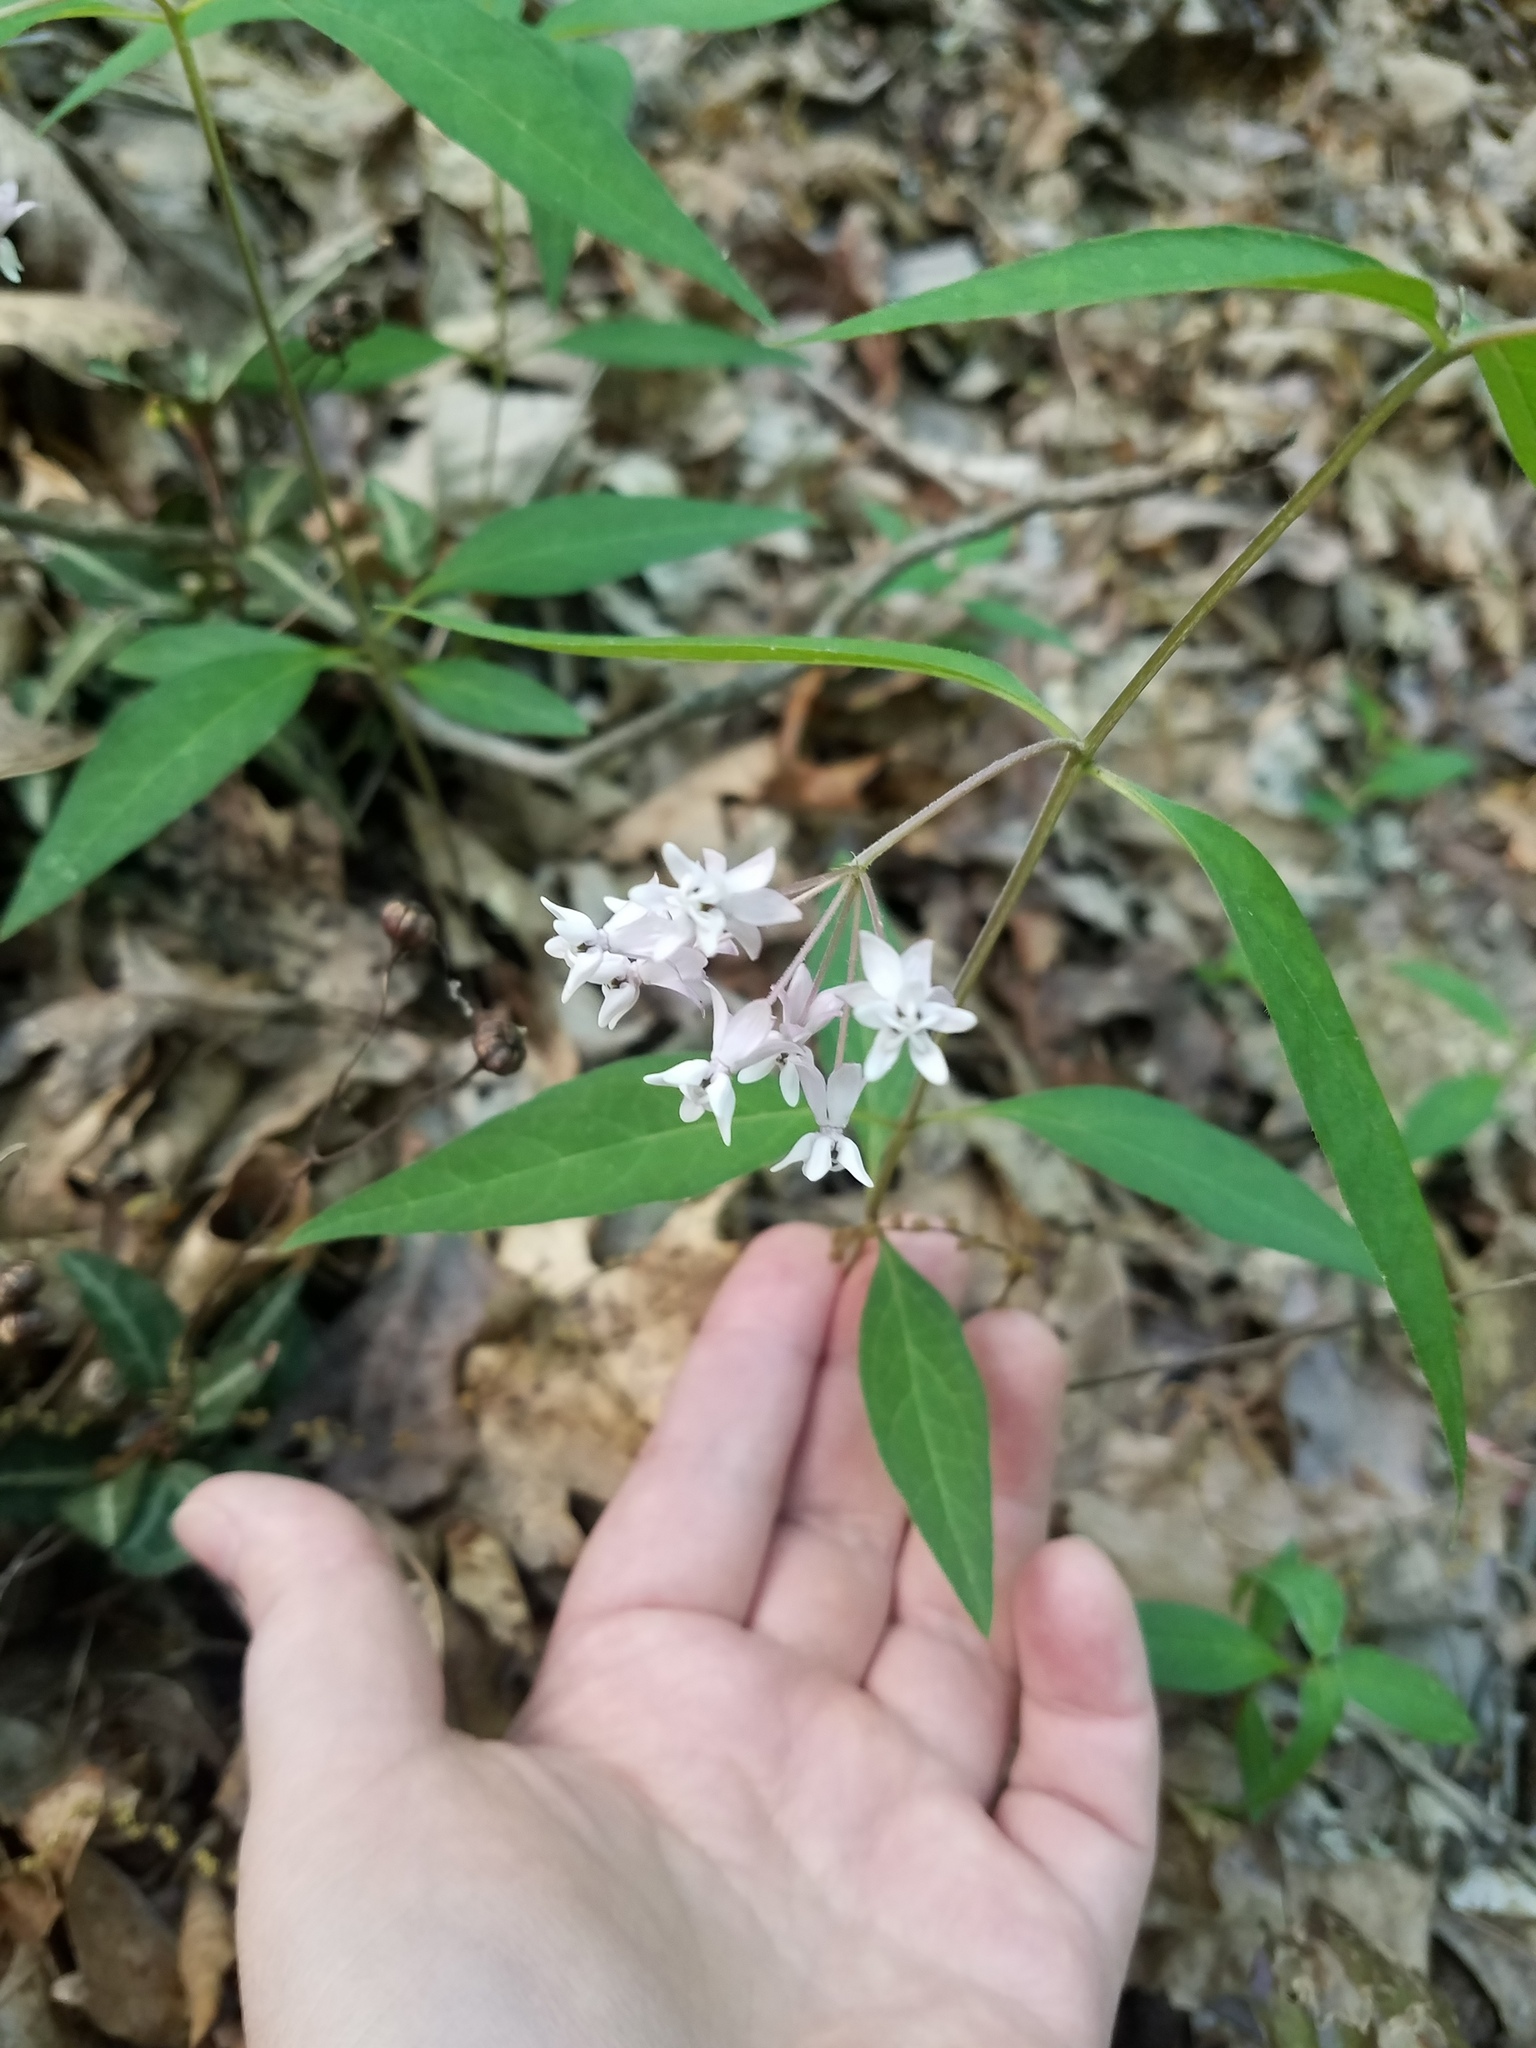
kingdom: Plantae
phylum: Tracheophyta
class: Magnoliopsida
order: Gentianales
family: Apocynaceae
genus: Asclepias
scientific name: Asclepias quadrifolia
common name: Whorled milkweed
